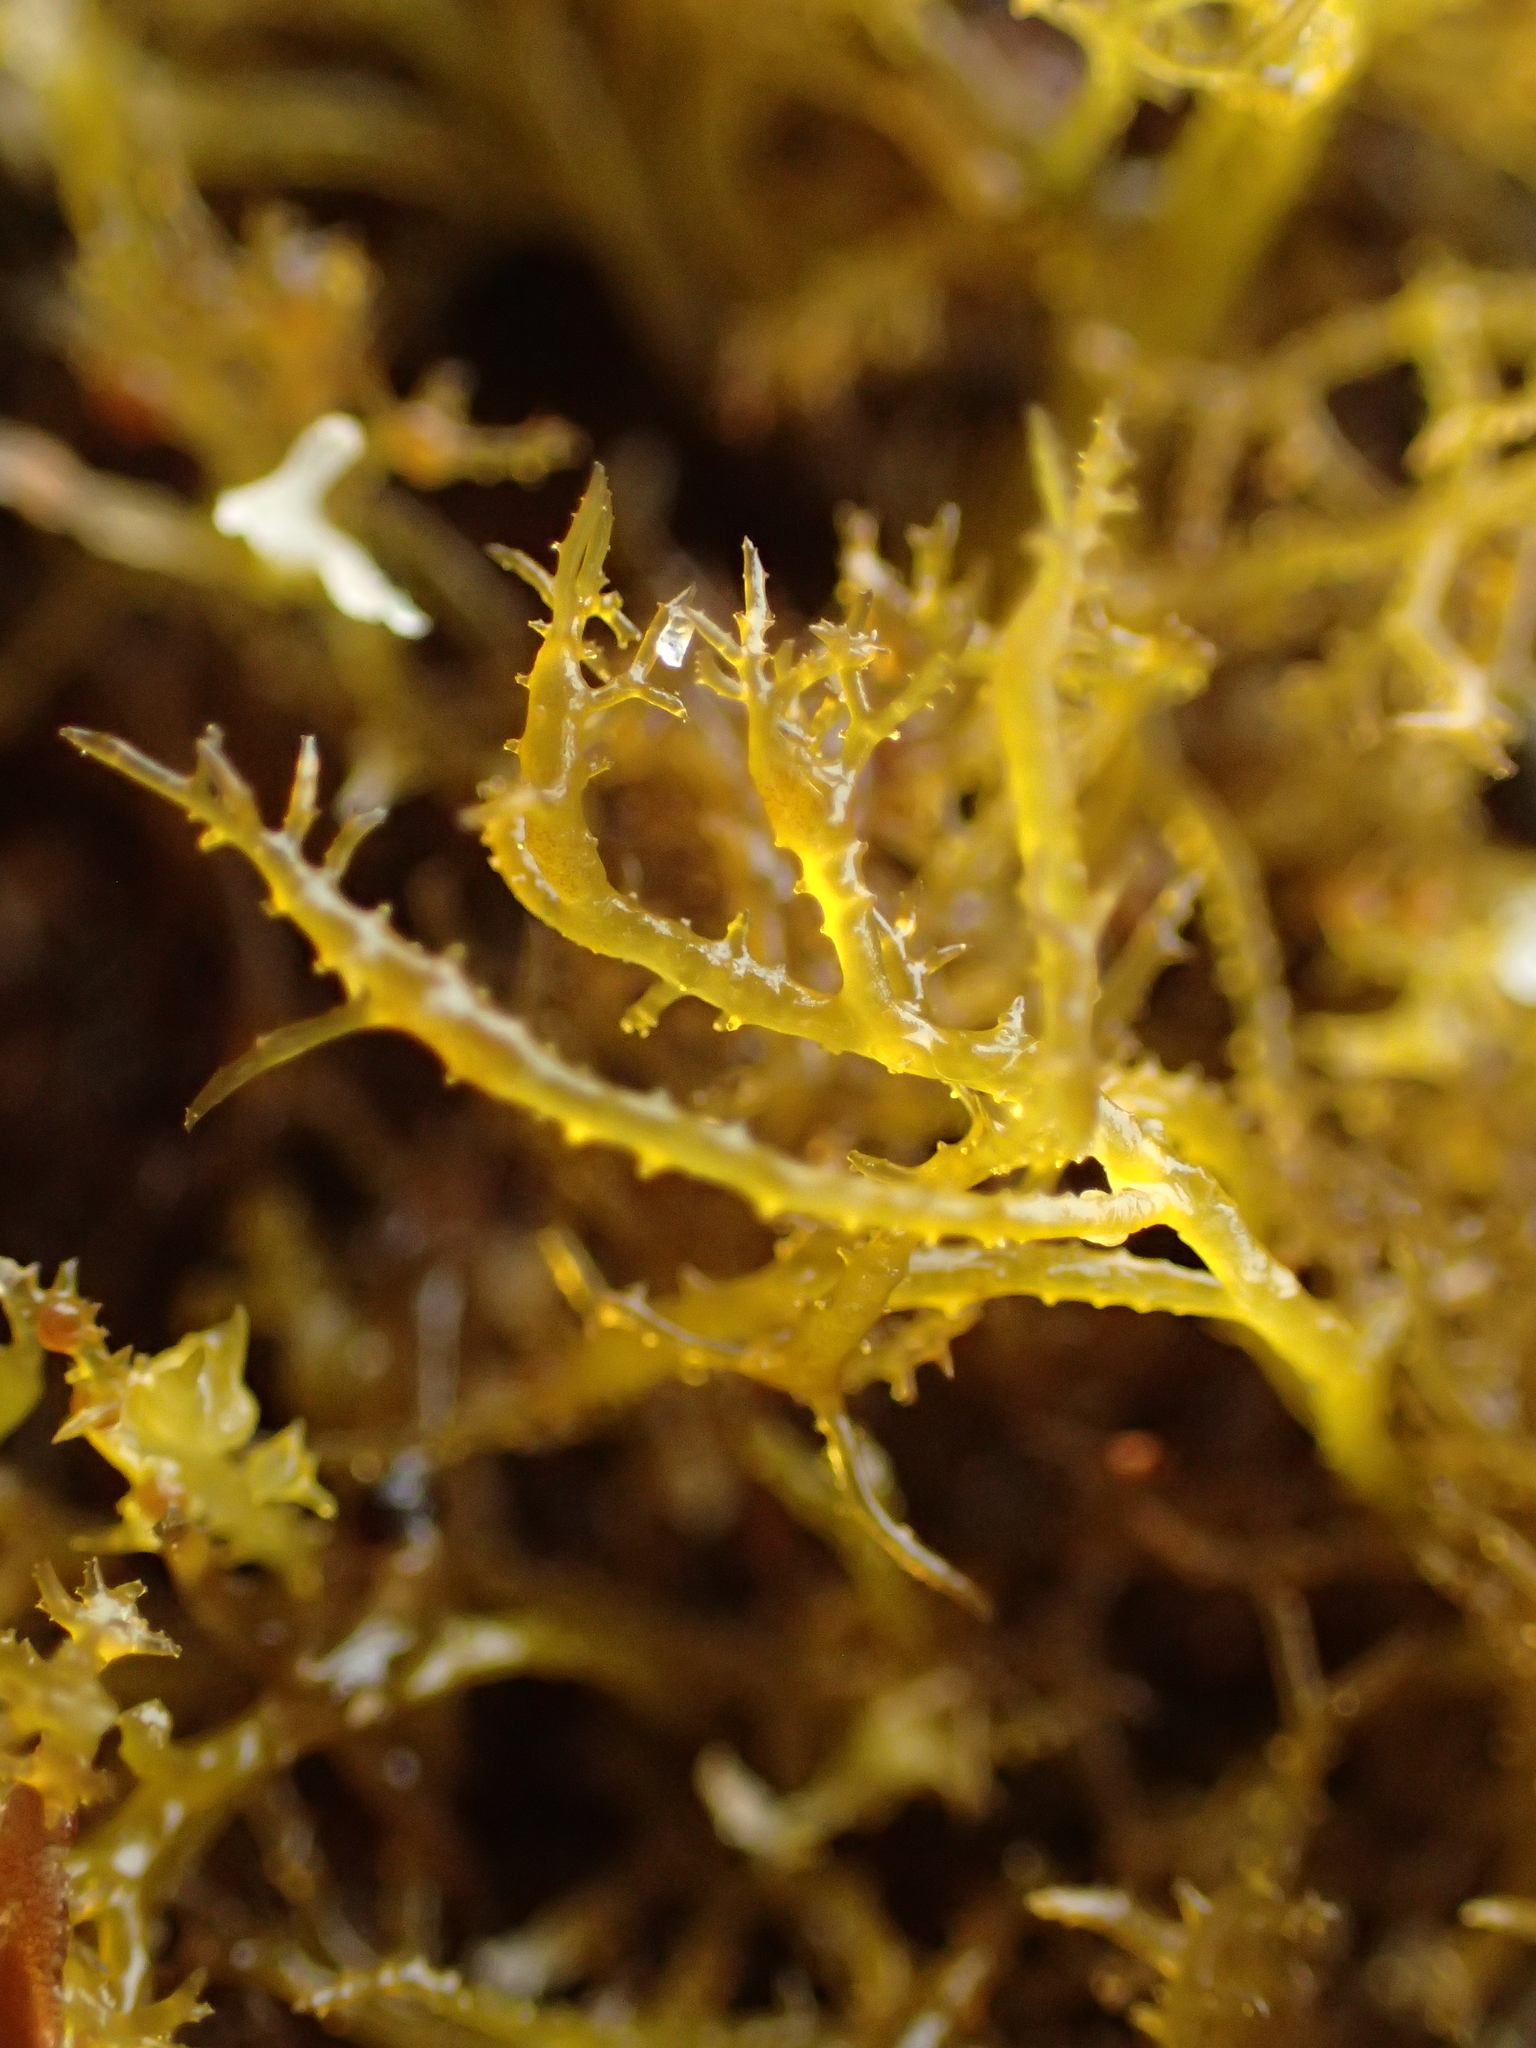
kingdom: Plantae
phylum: Rhodophyta
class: Florideophyceae
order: Gigartinales
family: Endocladiaceae
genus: Endocladia
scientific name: Endocladia muricata
